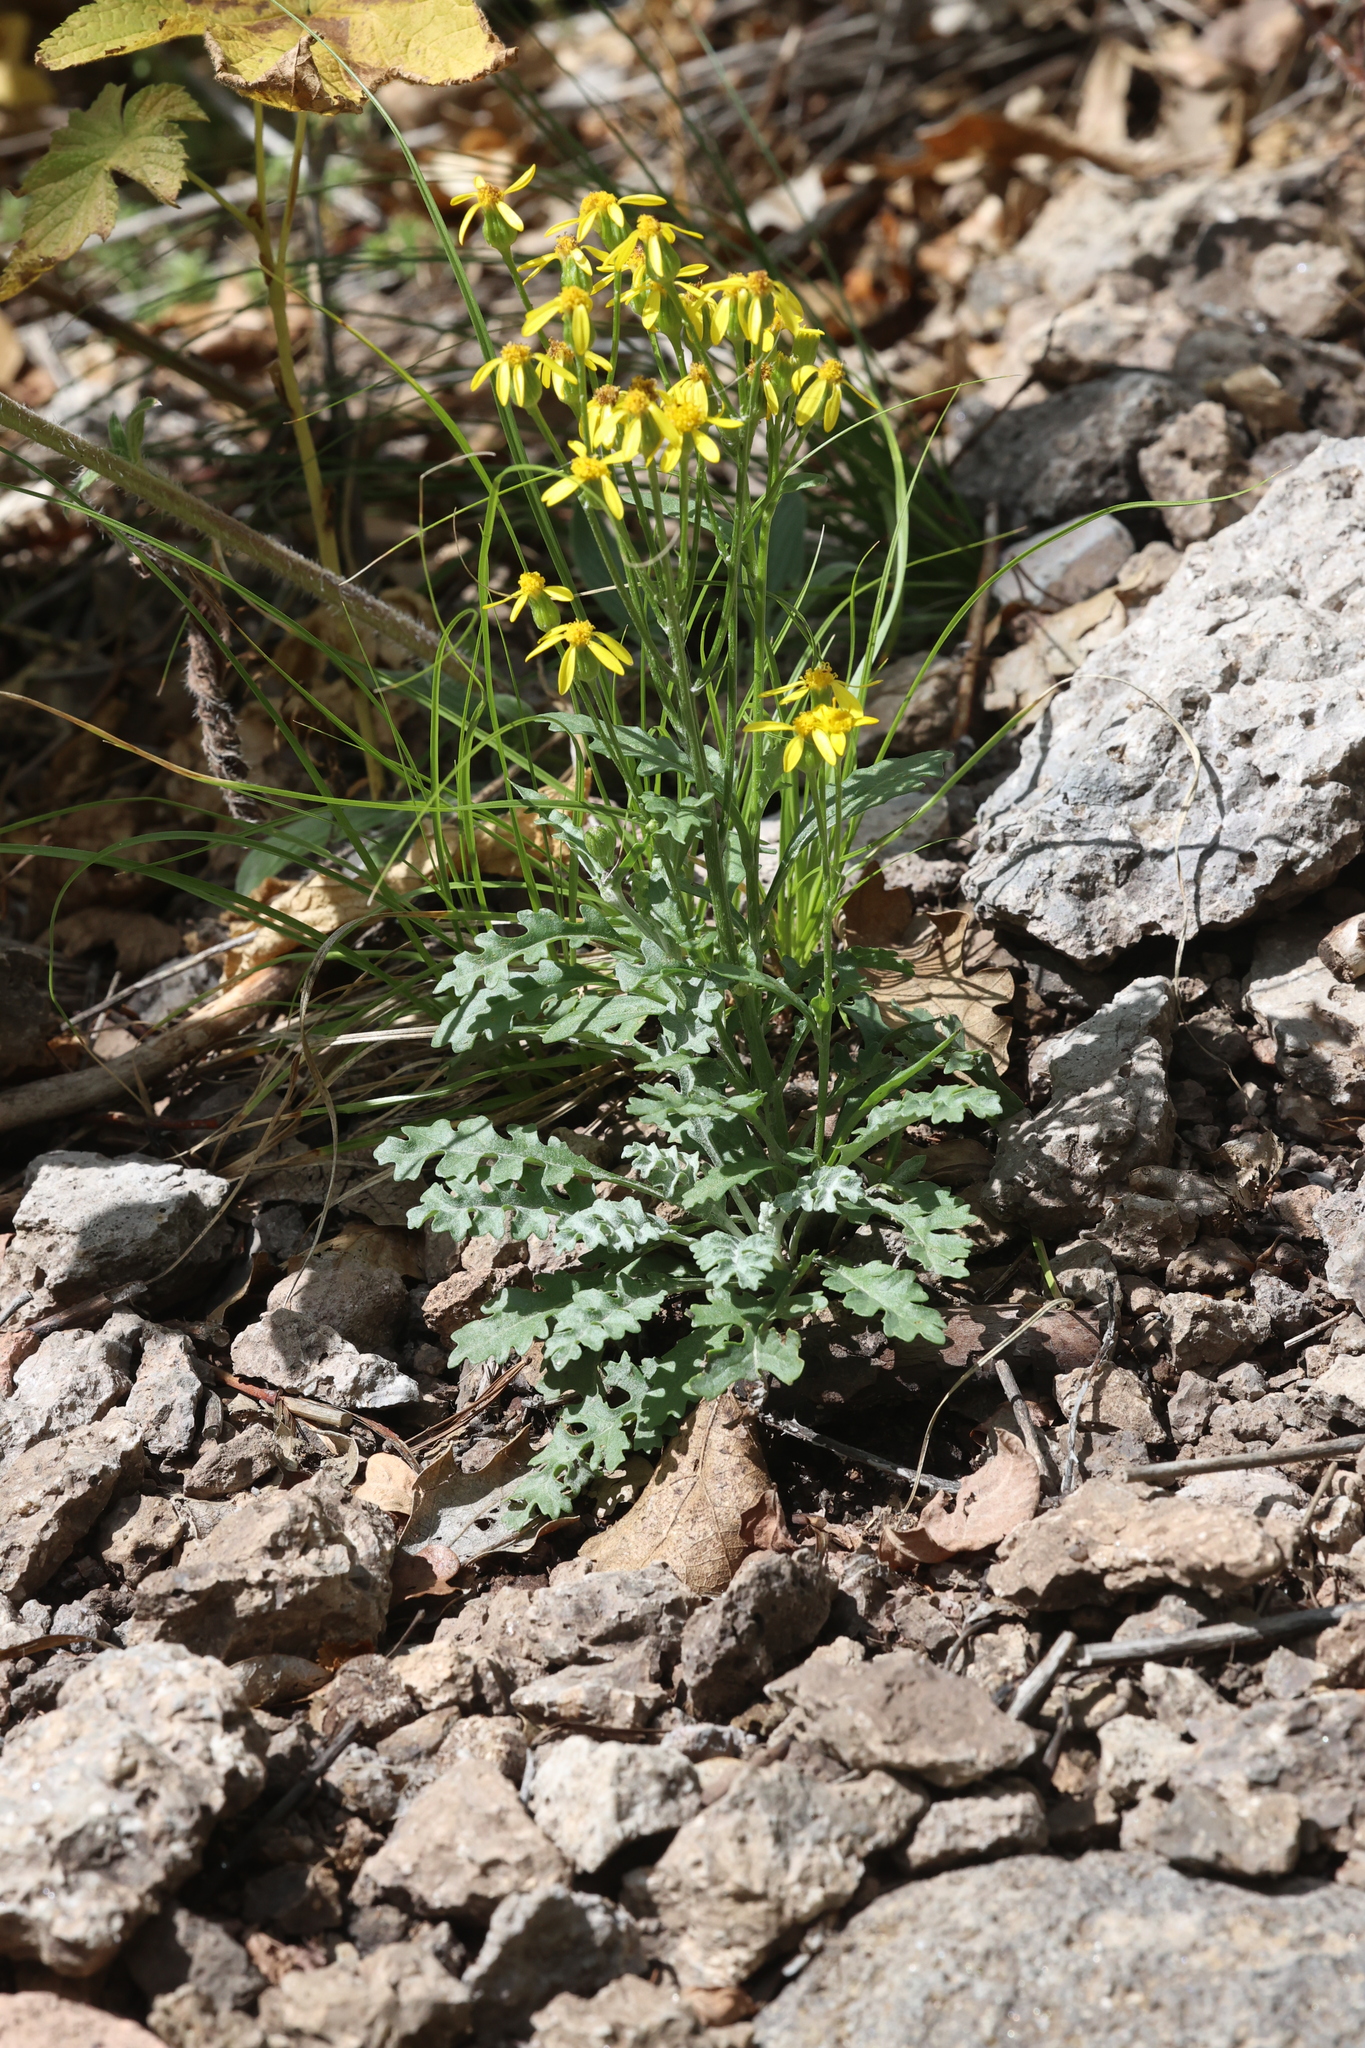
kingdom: Plantae
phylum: Tracheophyta
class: Magnoliopsida
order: Asterales
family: Asteraceae
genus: Packera
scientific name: Packera fendleri
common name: Notch-leaf butterweed
